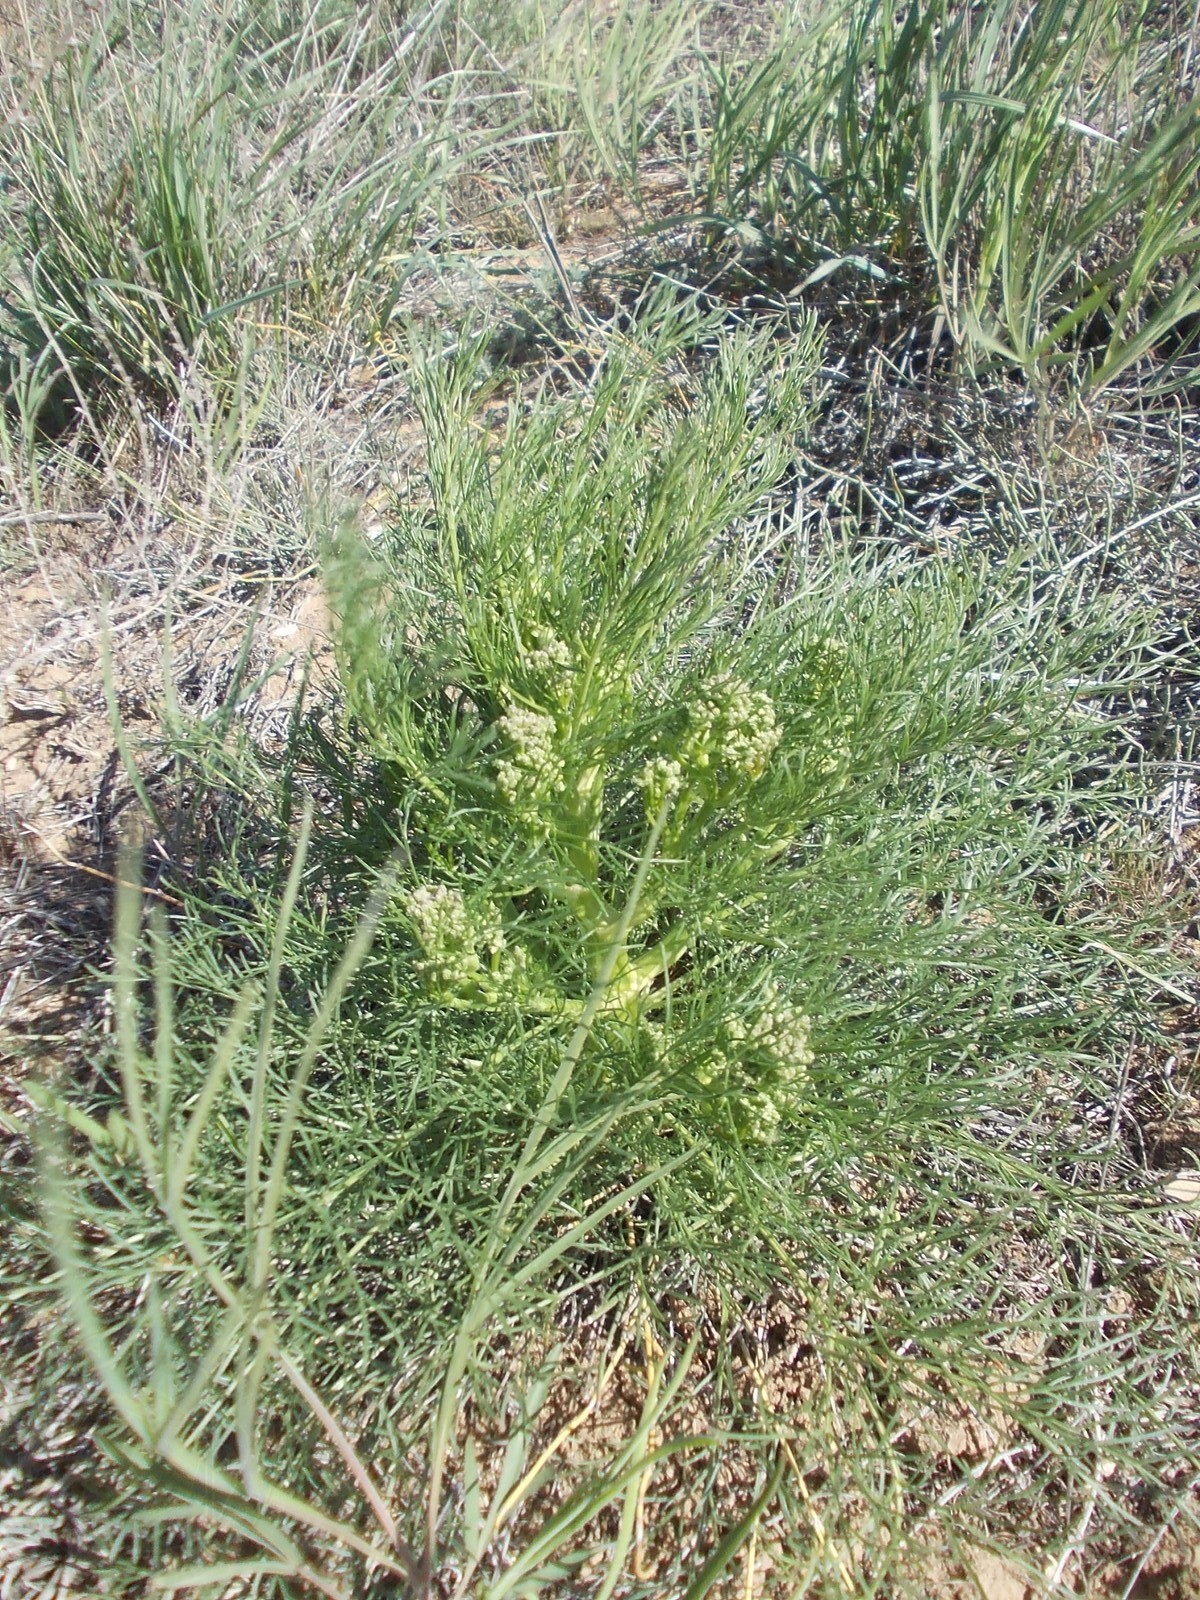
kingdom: Plantae
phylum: Tracheophyta
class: Magnoliopsida
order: Apiales
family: Apiaceae
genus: Trinia
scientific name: Trinia hispida
